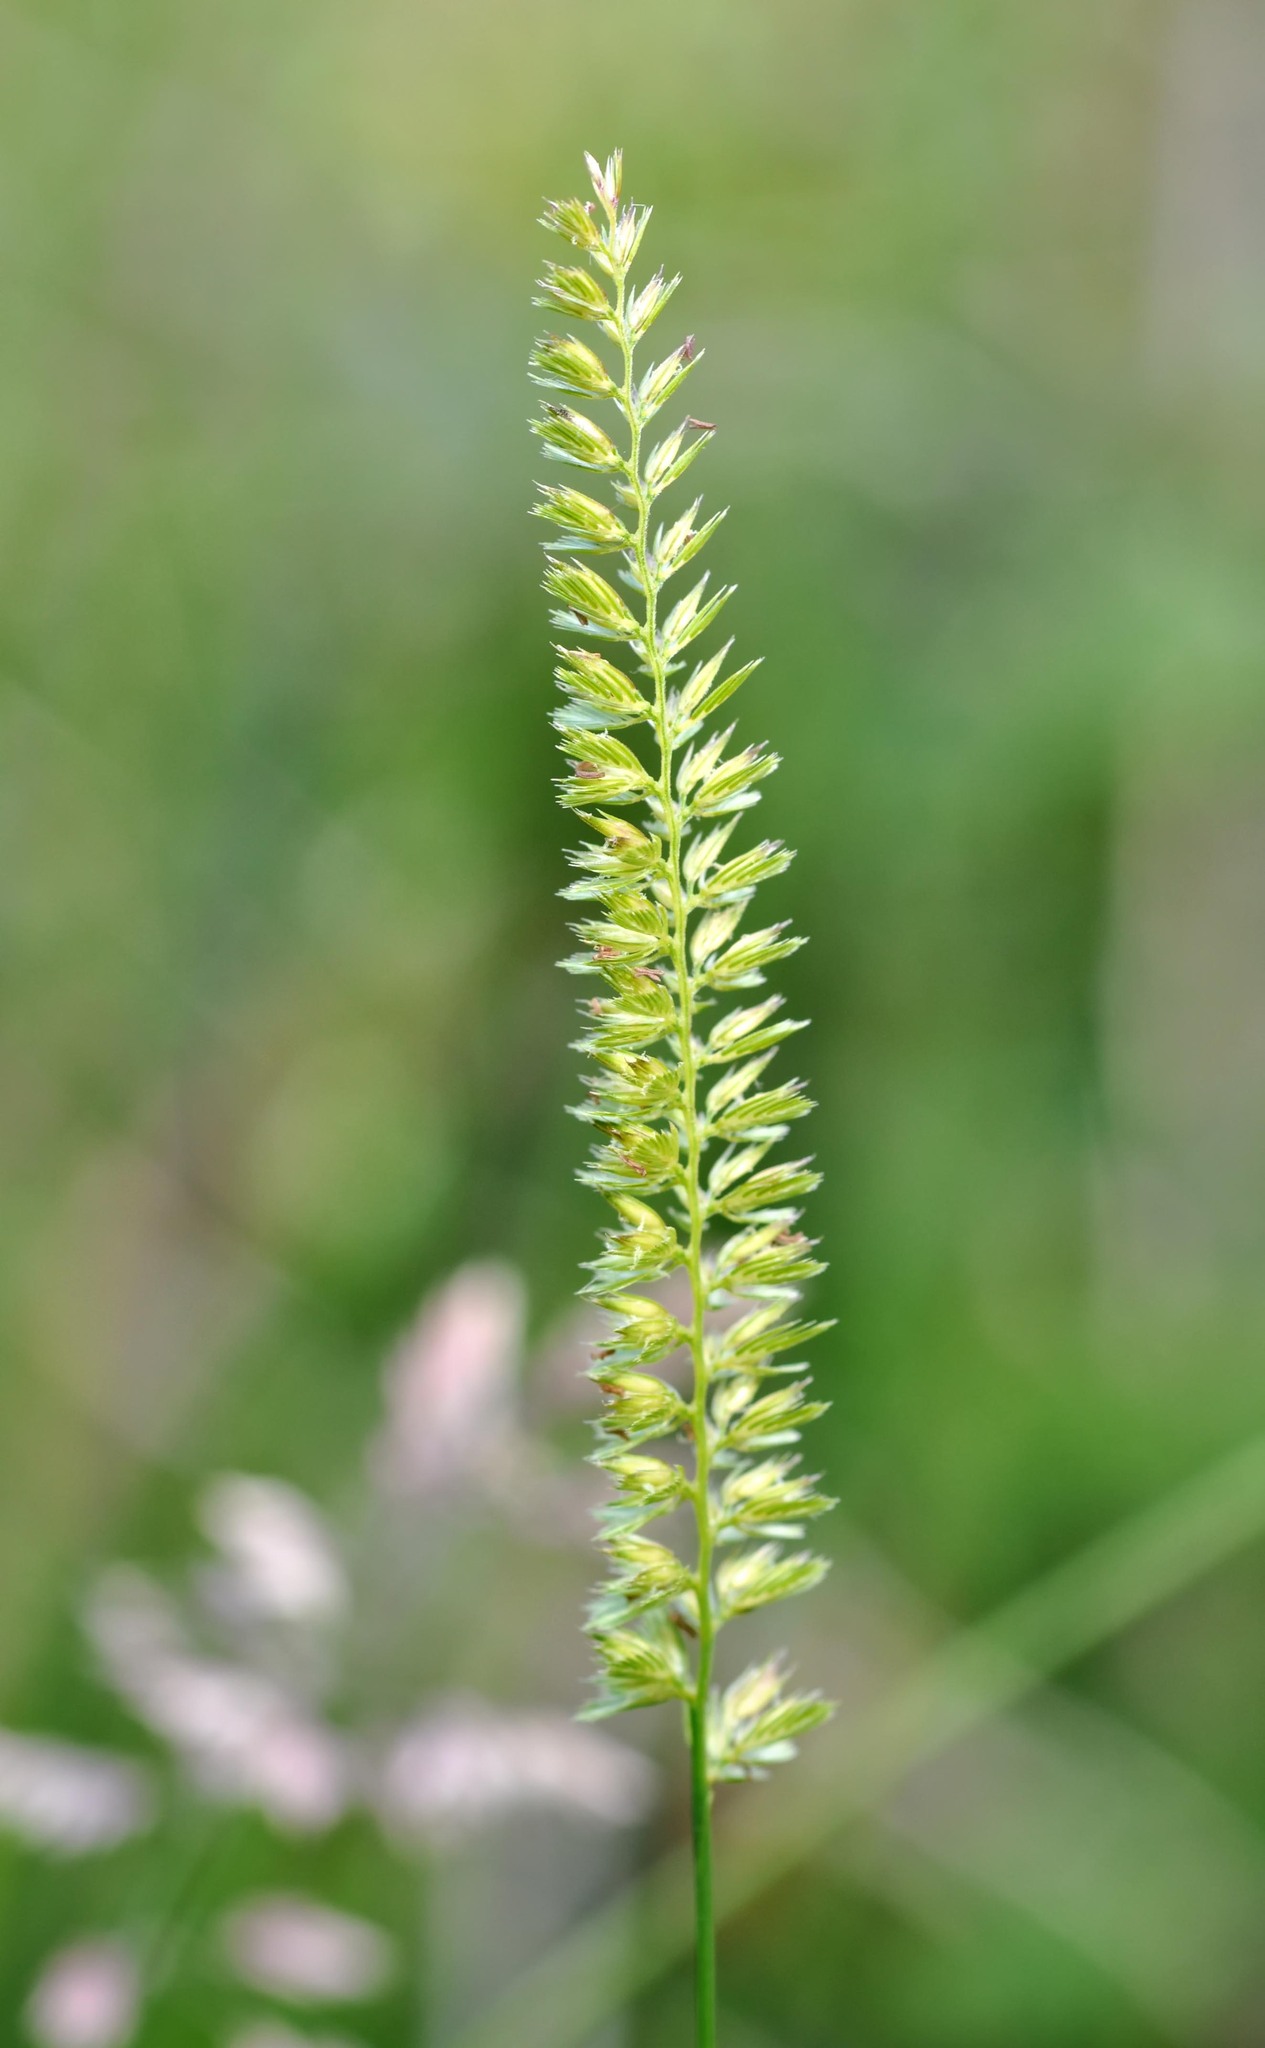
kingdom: Plantae
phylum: Tracheophyta
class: Liliopsida
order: Poales
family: Poaceae
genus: Cynosurus
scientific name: Cynosurus cristatus
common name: Crested dog's-tail
